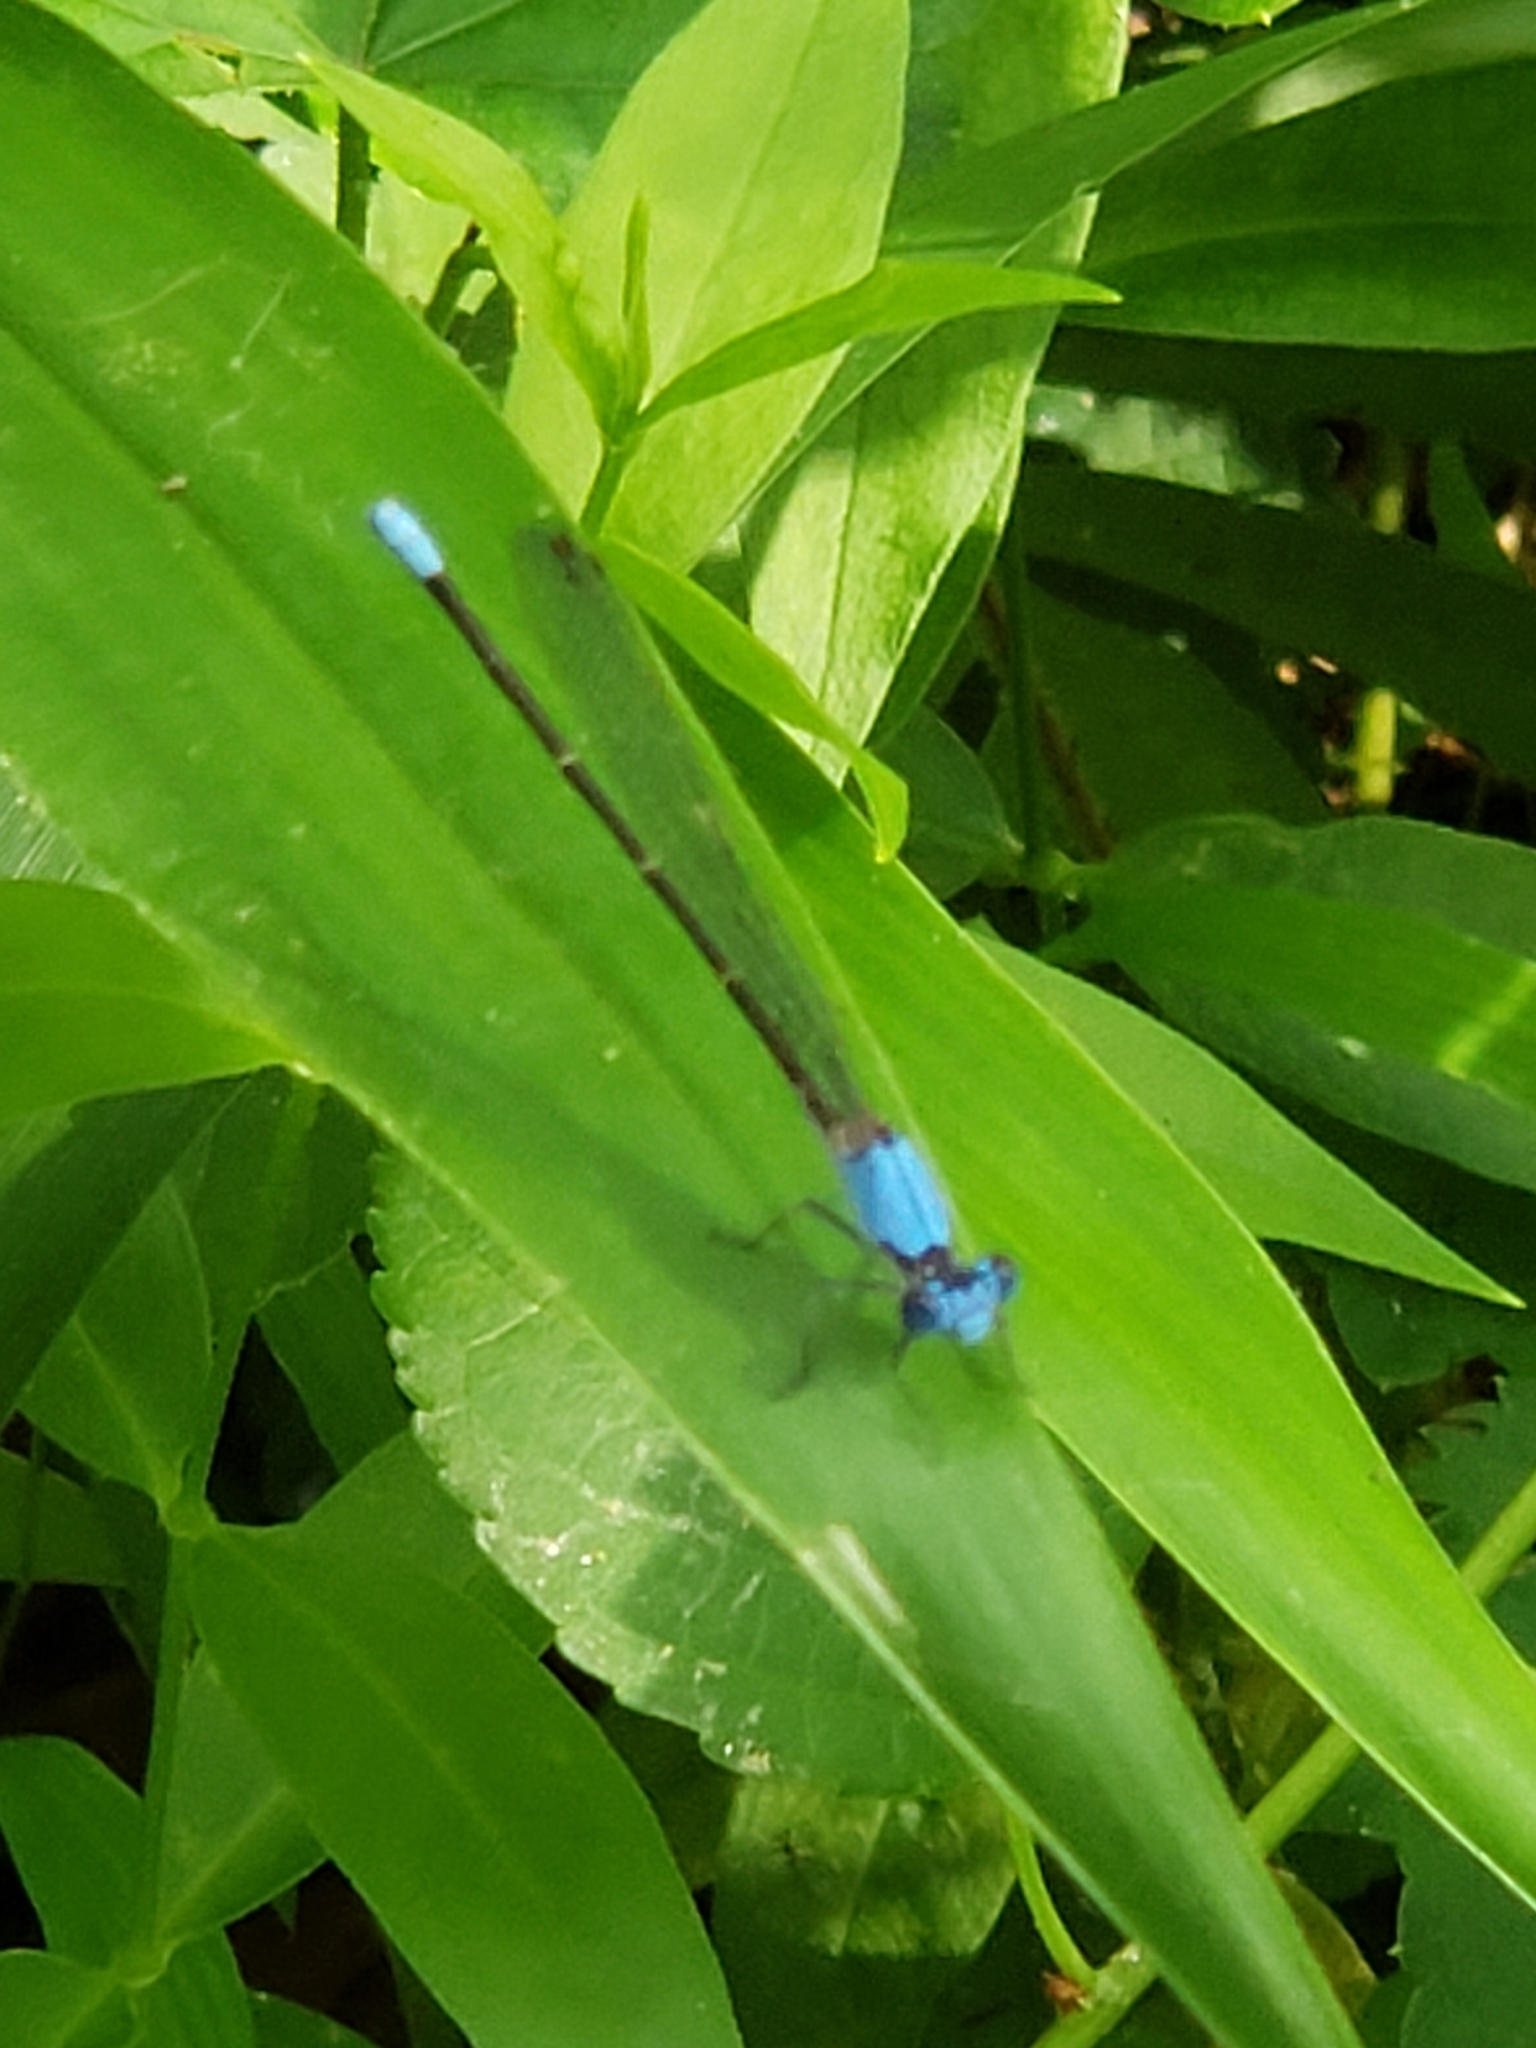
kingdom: Animalia
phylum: Arthropoda
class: Insecta
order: Odonata
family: Coenagrionidae
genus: Argia
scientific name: Argia apicalis
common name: Blue-fronted dancer
